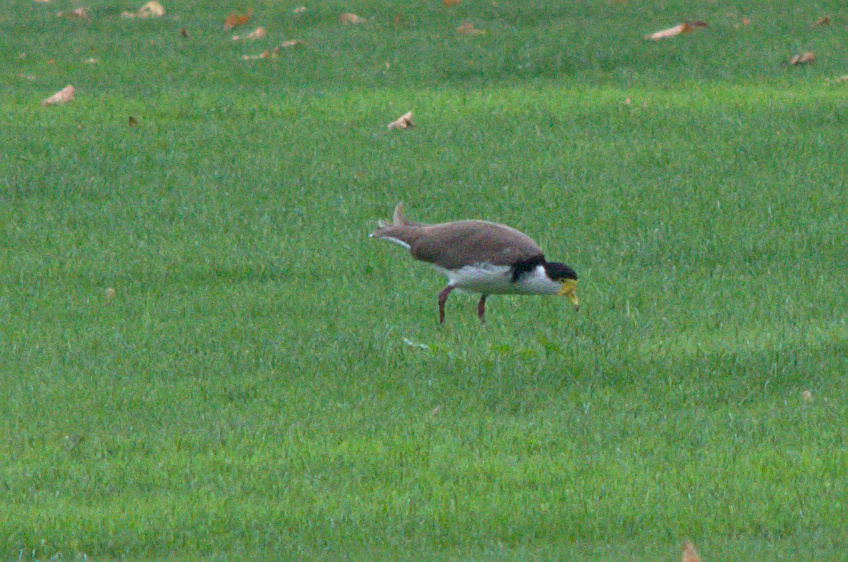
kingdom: Animalia
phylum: Chordata
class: Aves
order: Charadriiformes
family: Charadriidae
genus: Vanellus
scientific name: Vanellus miles
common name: Masked lapwing
